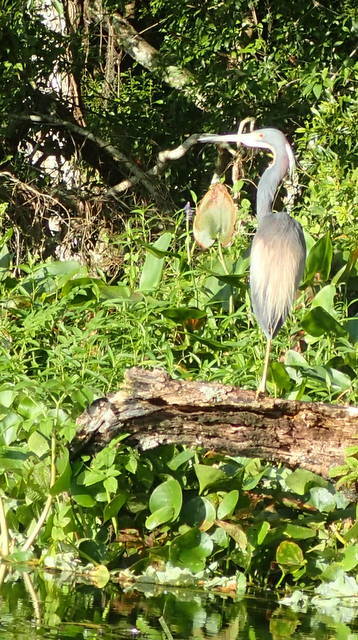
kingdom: Animalia
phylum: Chordata
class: Aves
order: Pelecaniformes
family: Ardeidae
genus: Egretta
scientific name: Egretta tricolor
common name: Tricolored heron
